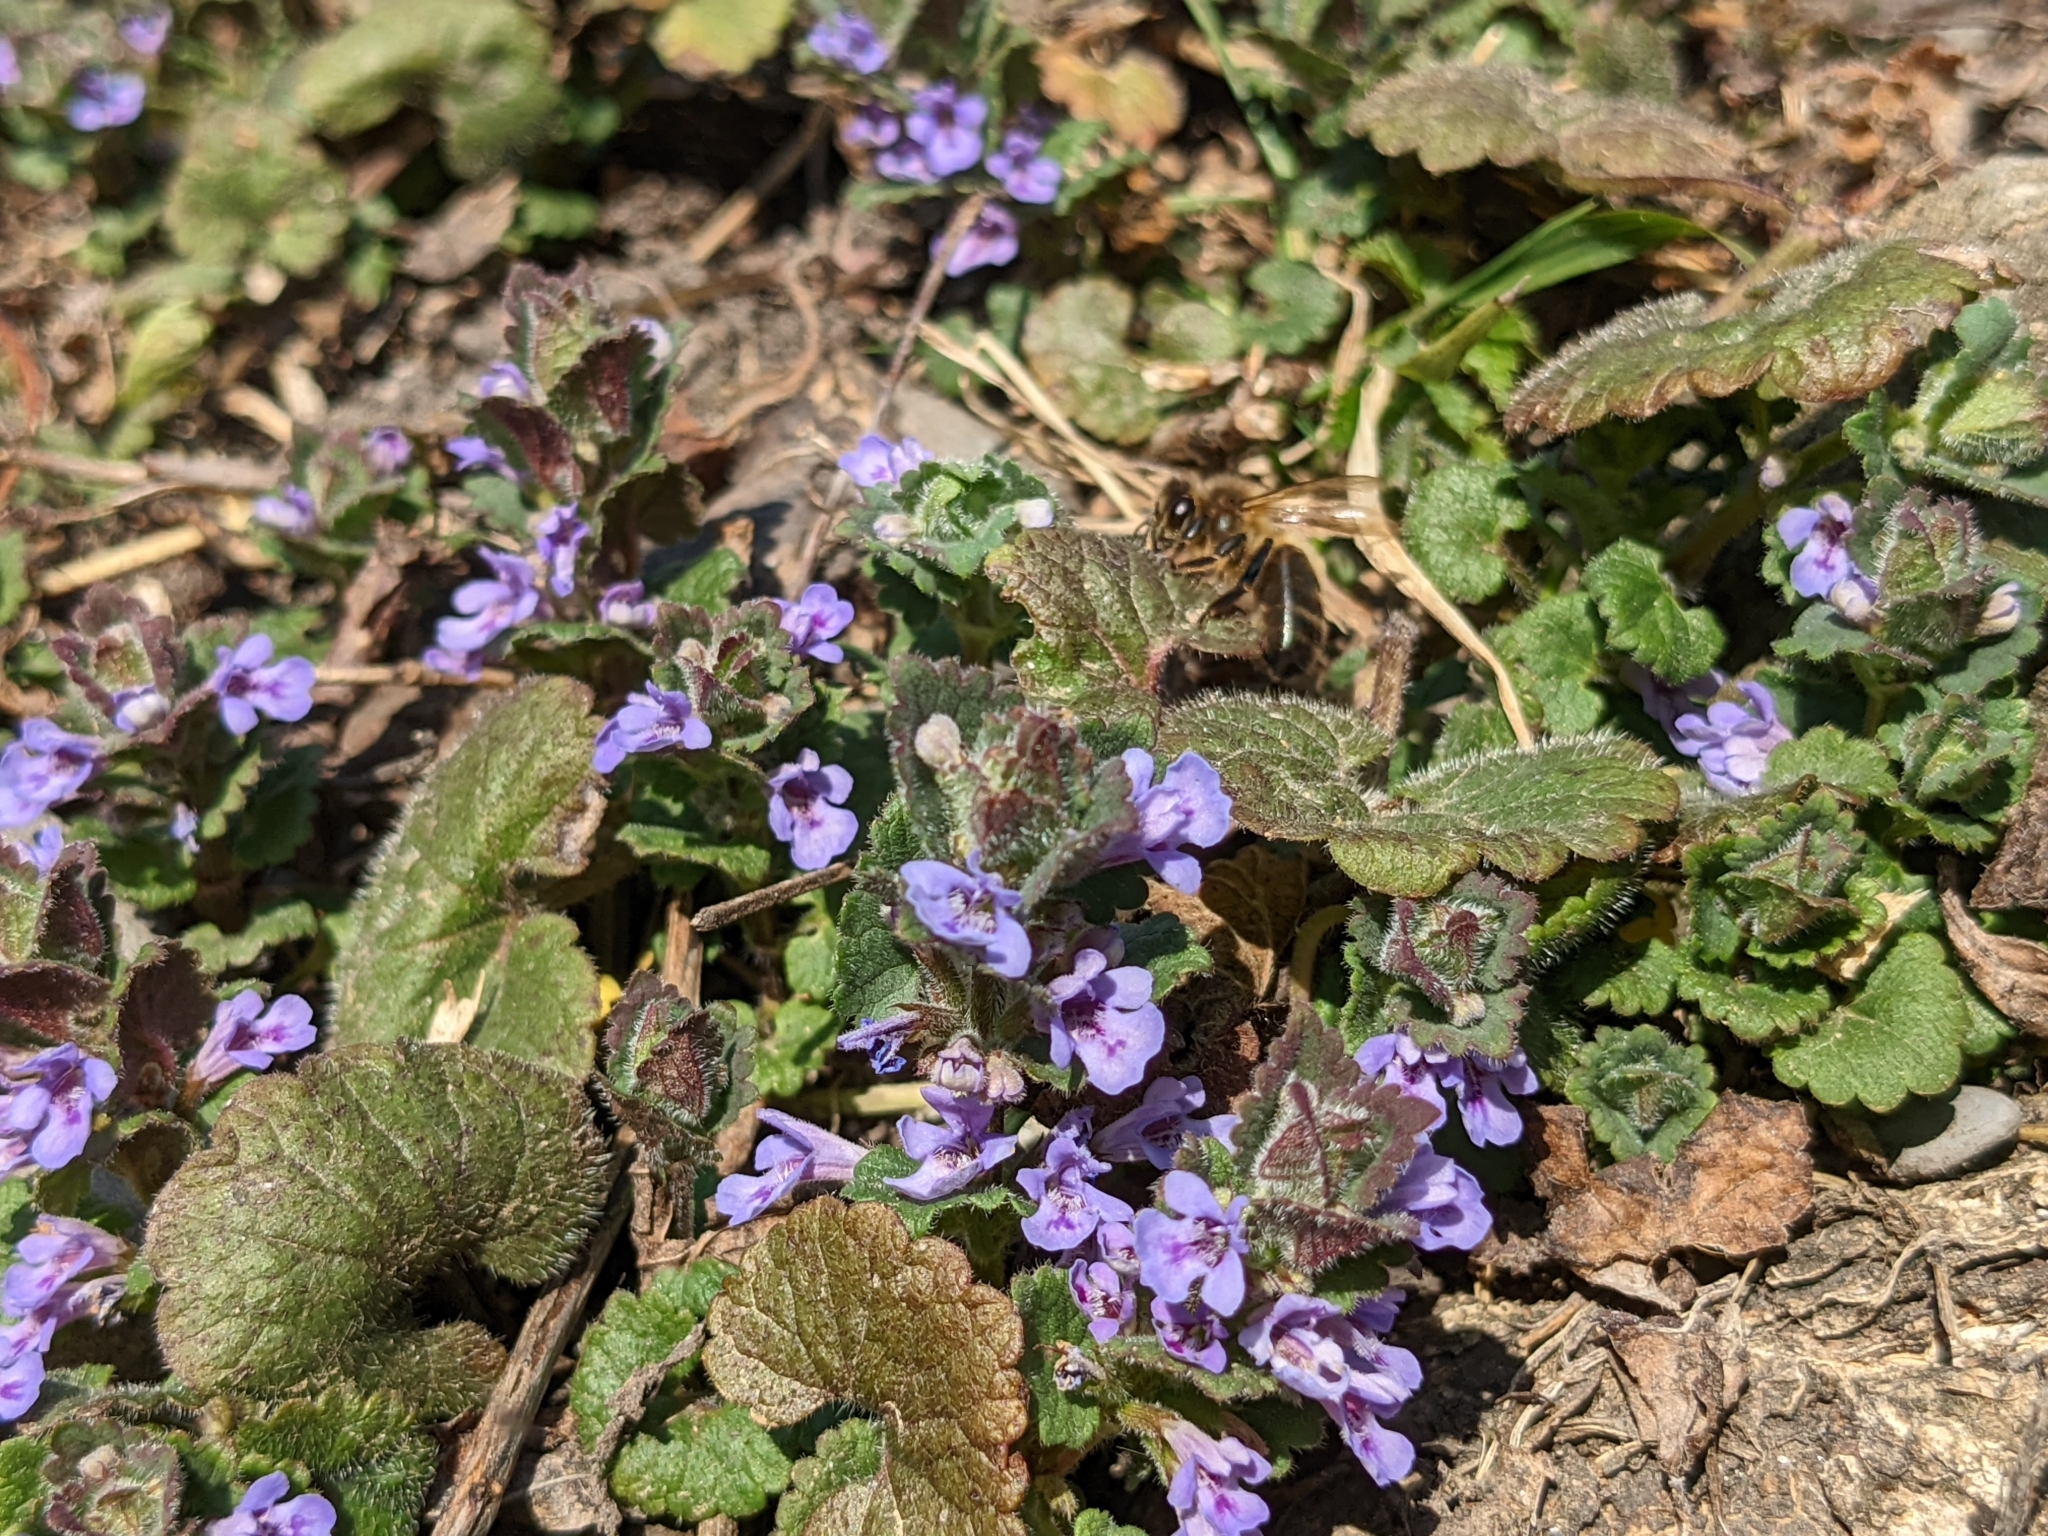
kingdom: Plantae
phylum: Tracheophyta
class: Magnoliopsida
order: Lamiales
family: Lamiaceae
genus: Glechoma
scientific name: Glechoma hederacea
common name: Ground ivy
